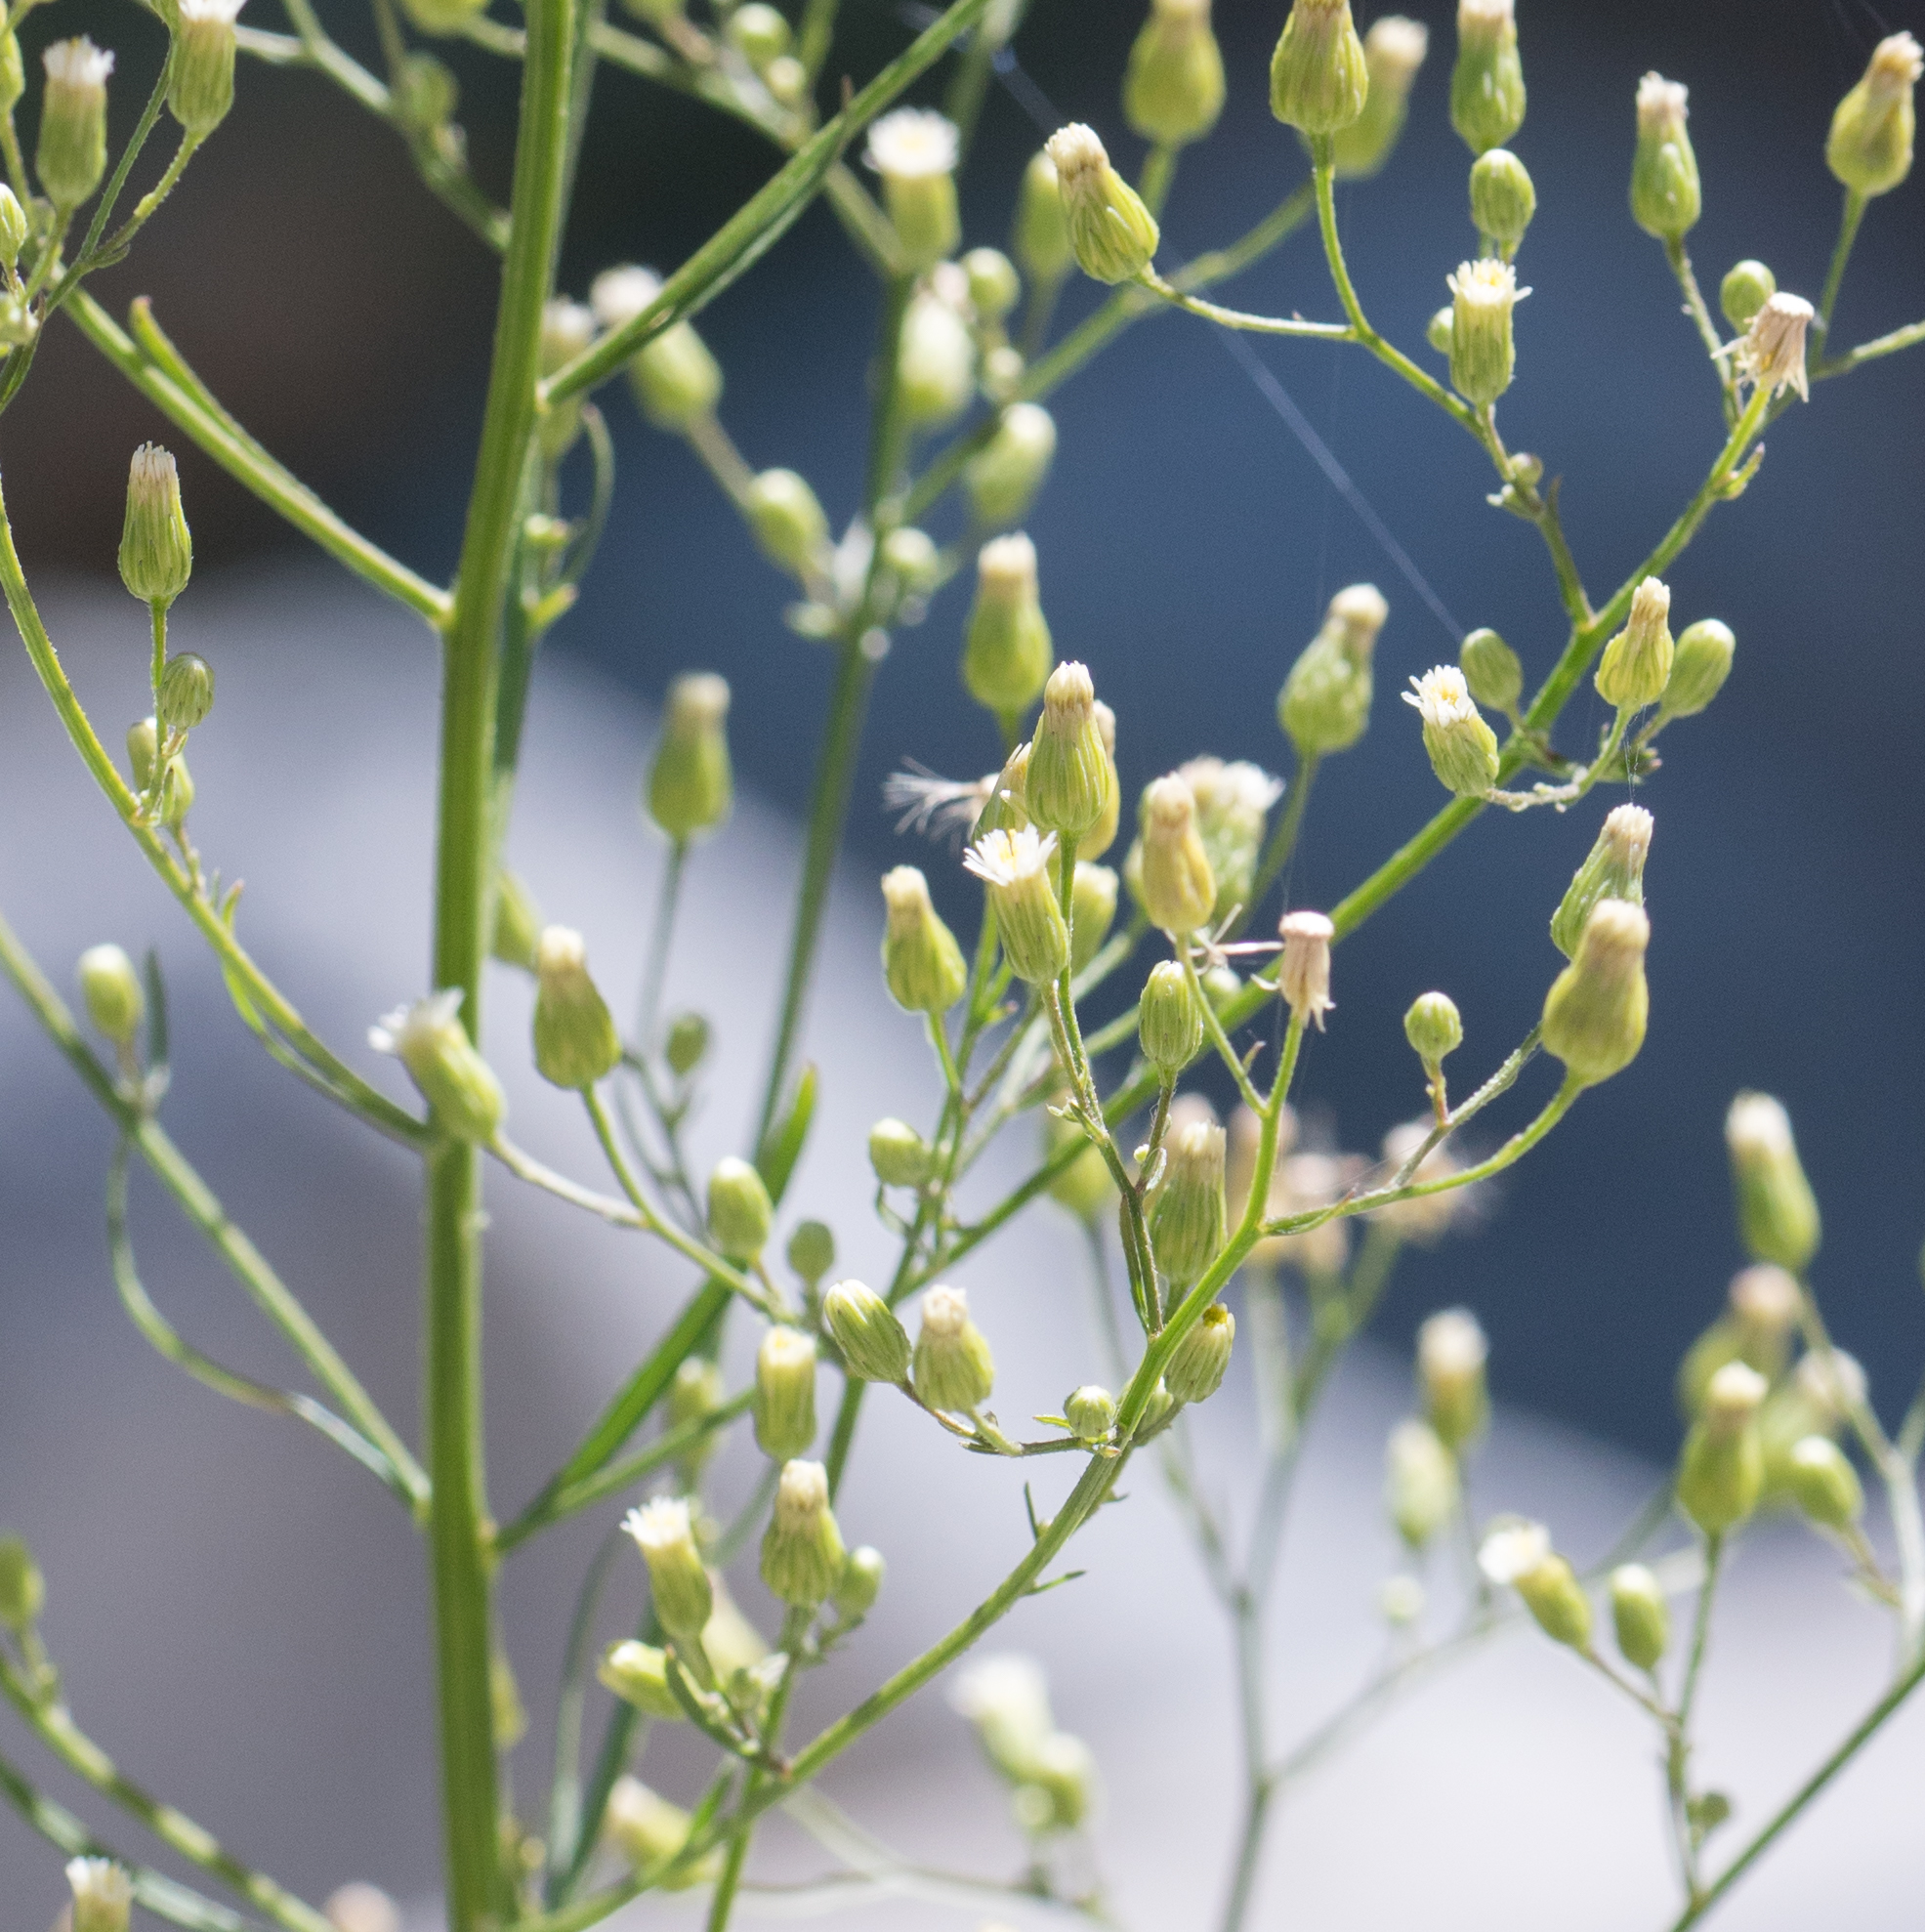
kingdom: Plantae
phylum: Tracheophyta
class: Magnoliopsida
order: Asterales
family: Asteraceae
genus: Erigeron
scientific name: Erigeron canadensis
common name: Canadian fleabane
